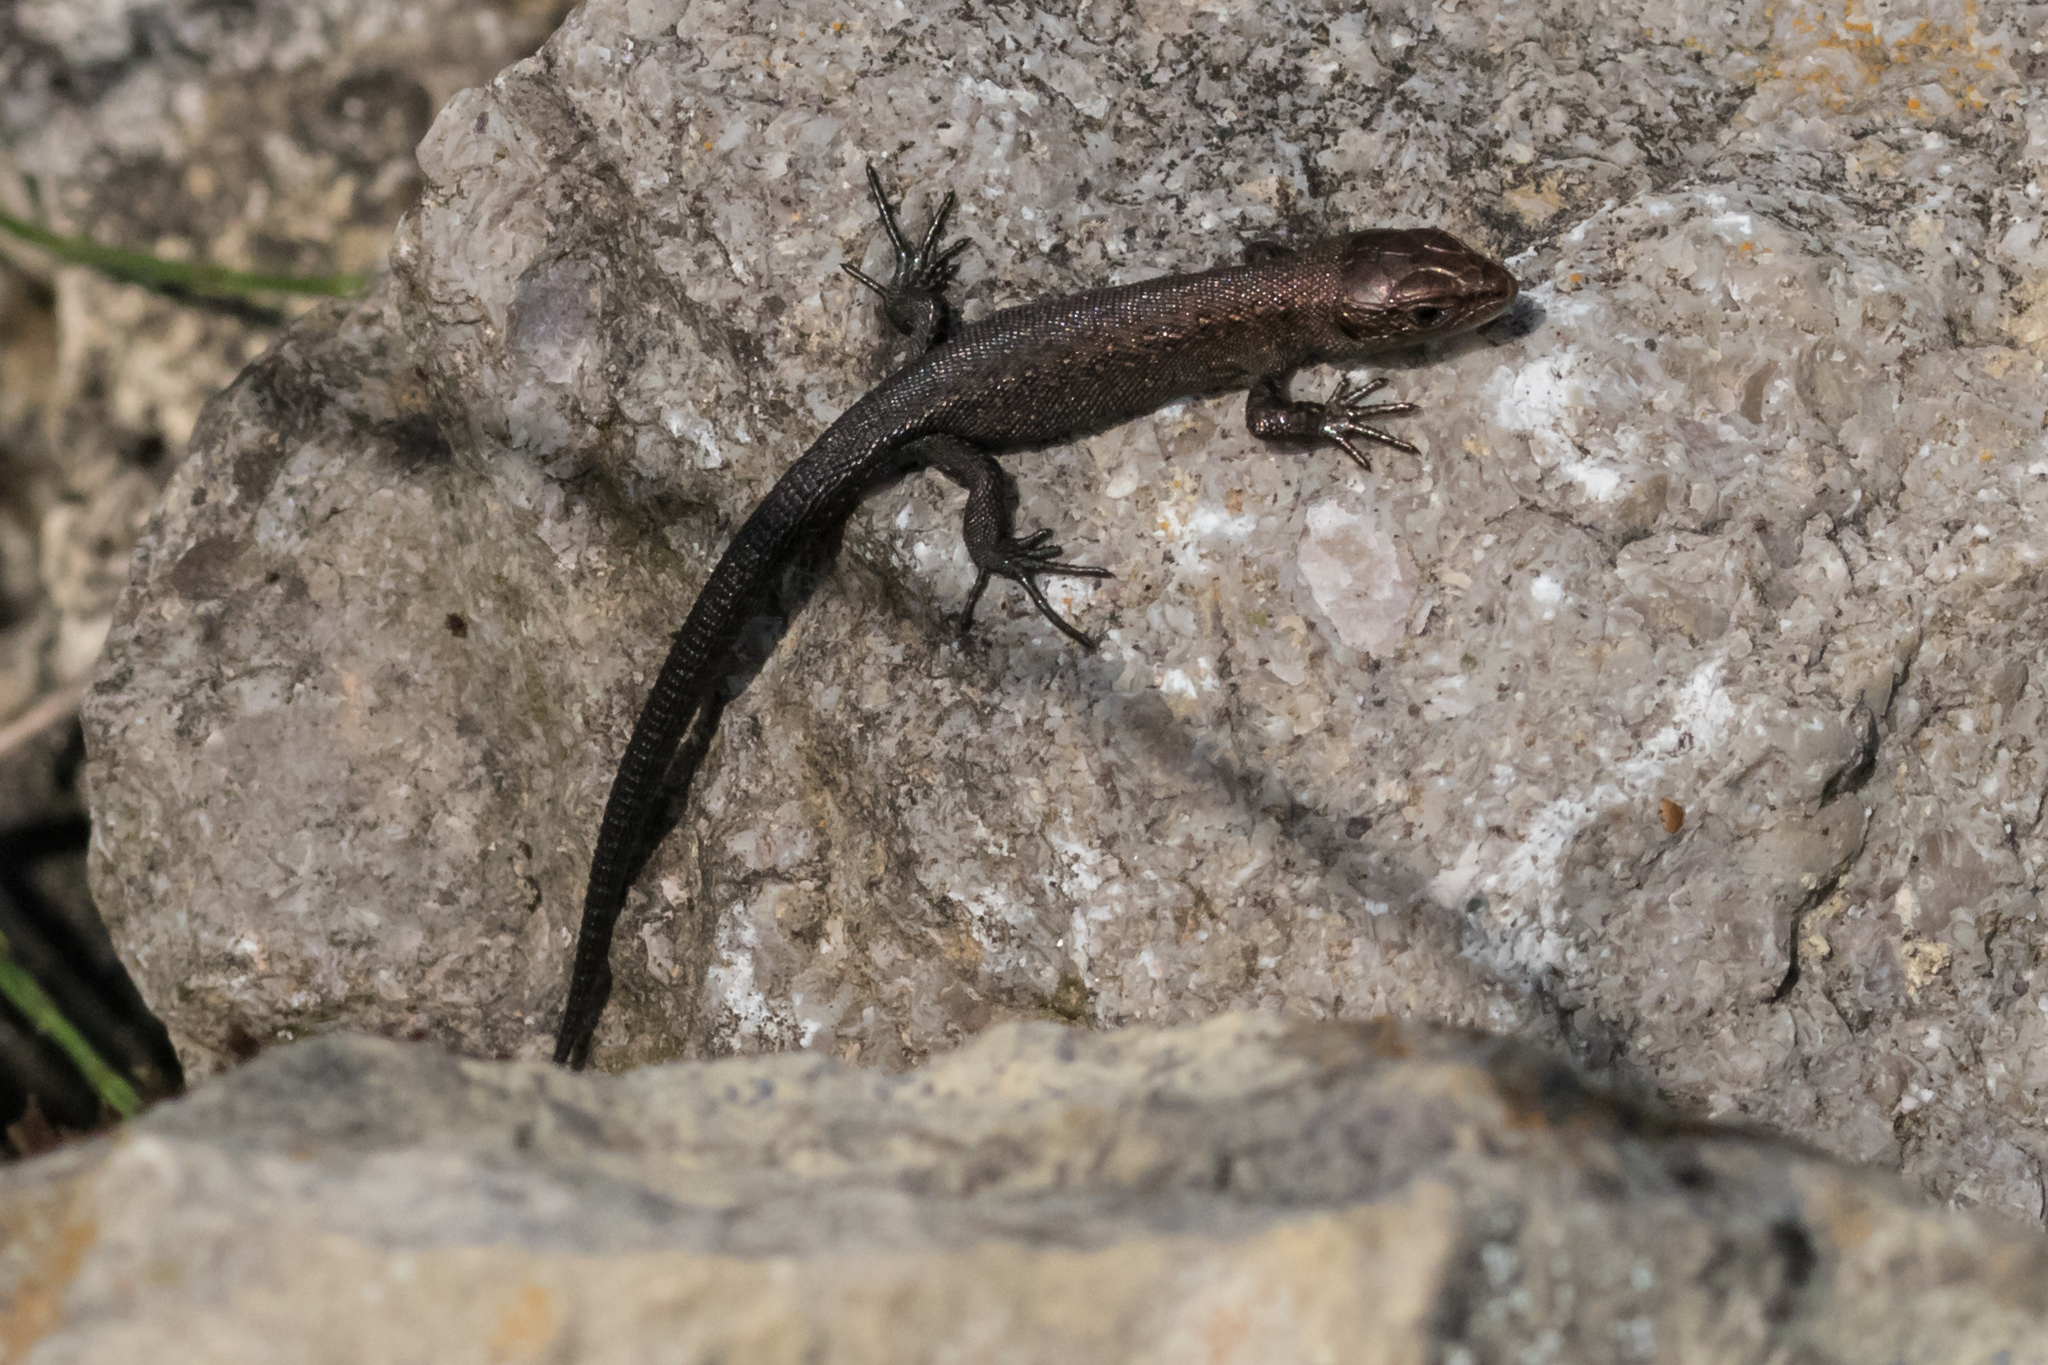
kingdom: Animalia
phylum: Chordata
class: Squamata
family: Lacertidae
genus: Zootoca
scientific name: Zootoca vivipara
